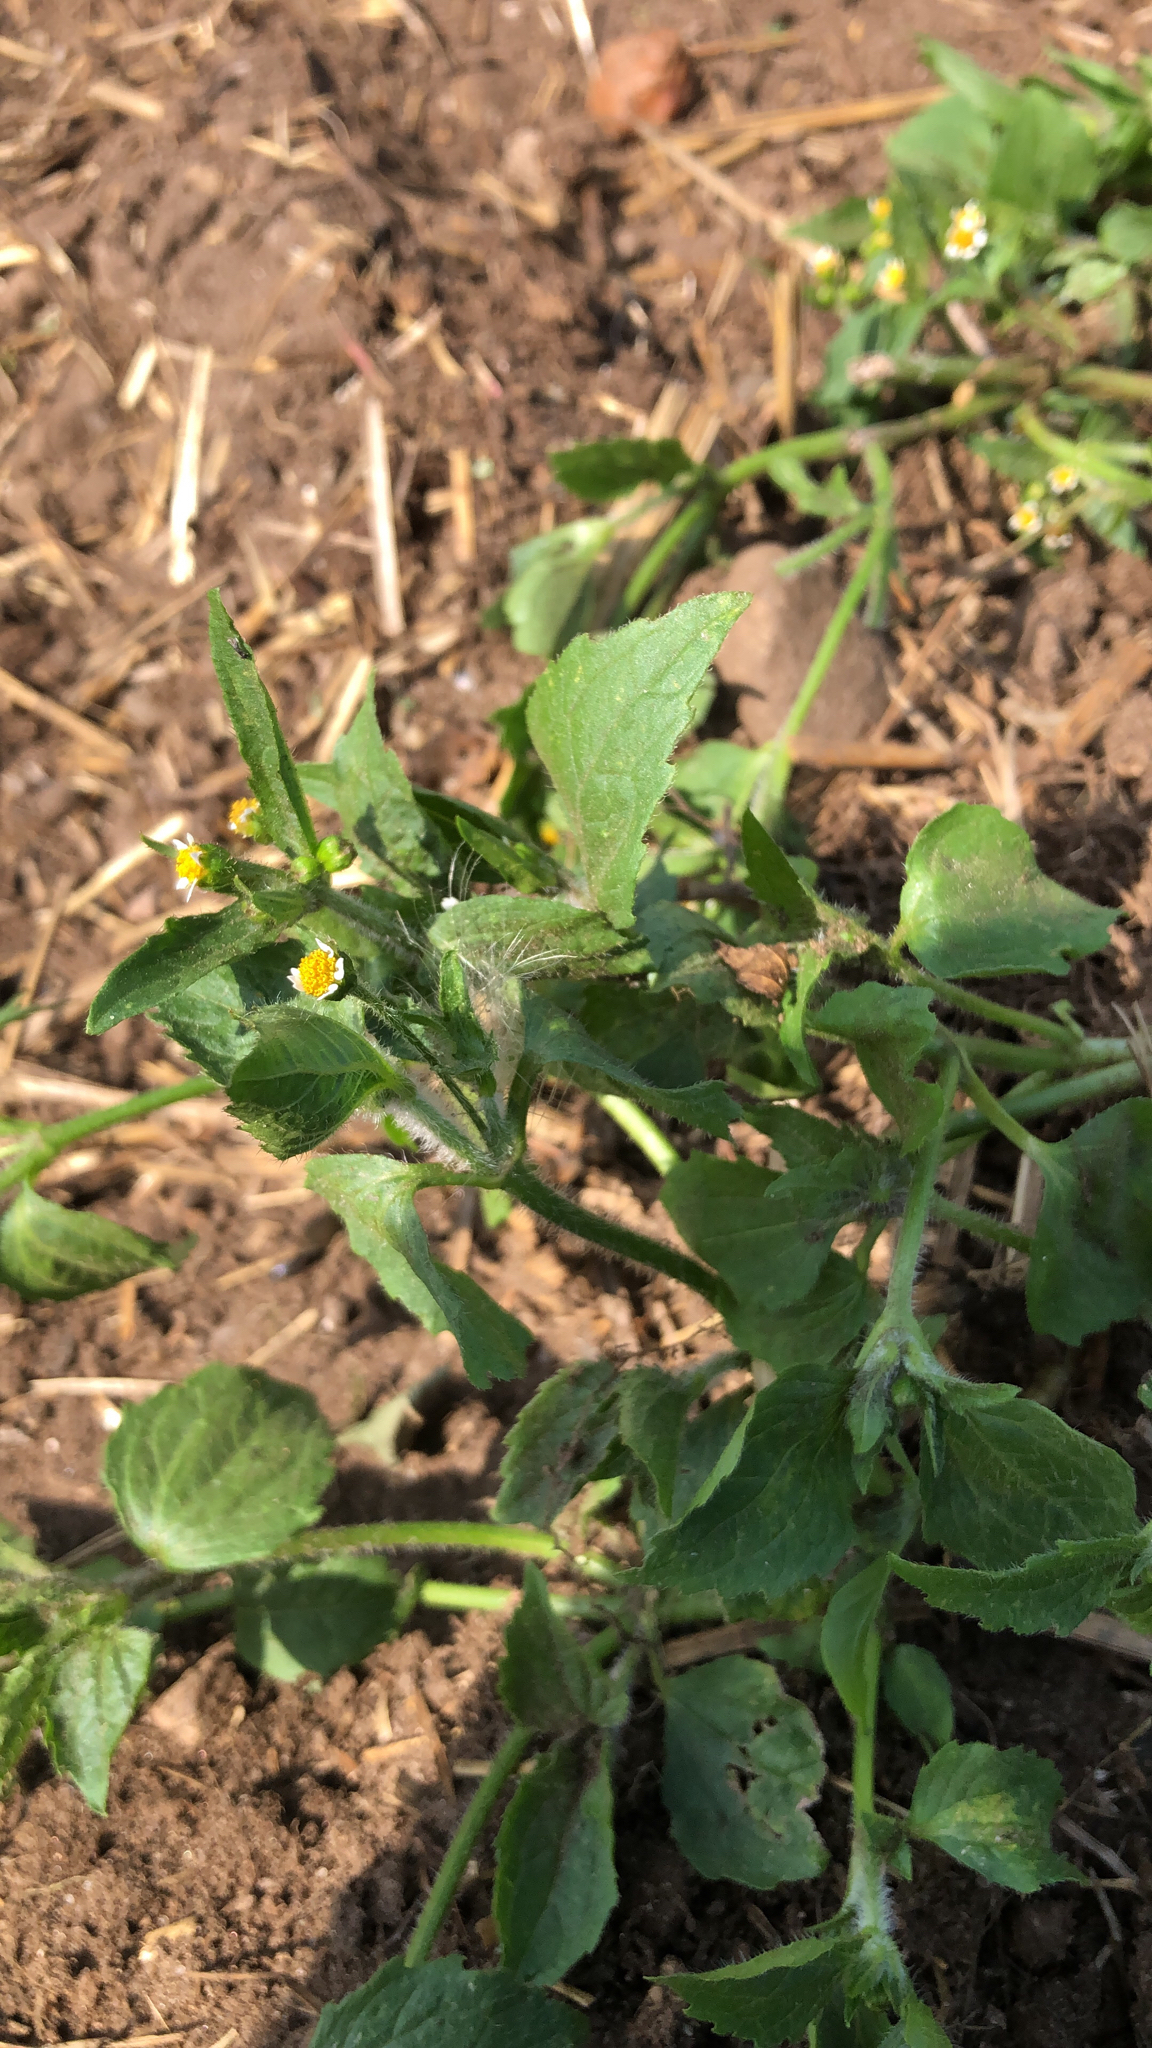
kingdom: Plantae
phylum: Tracheophyta
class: Magnoliopsida
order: Asterales
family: Asteraceae
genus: Galinsoga
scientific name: Galinsoga quadriradiata
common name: Shaggy soldier
